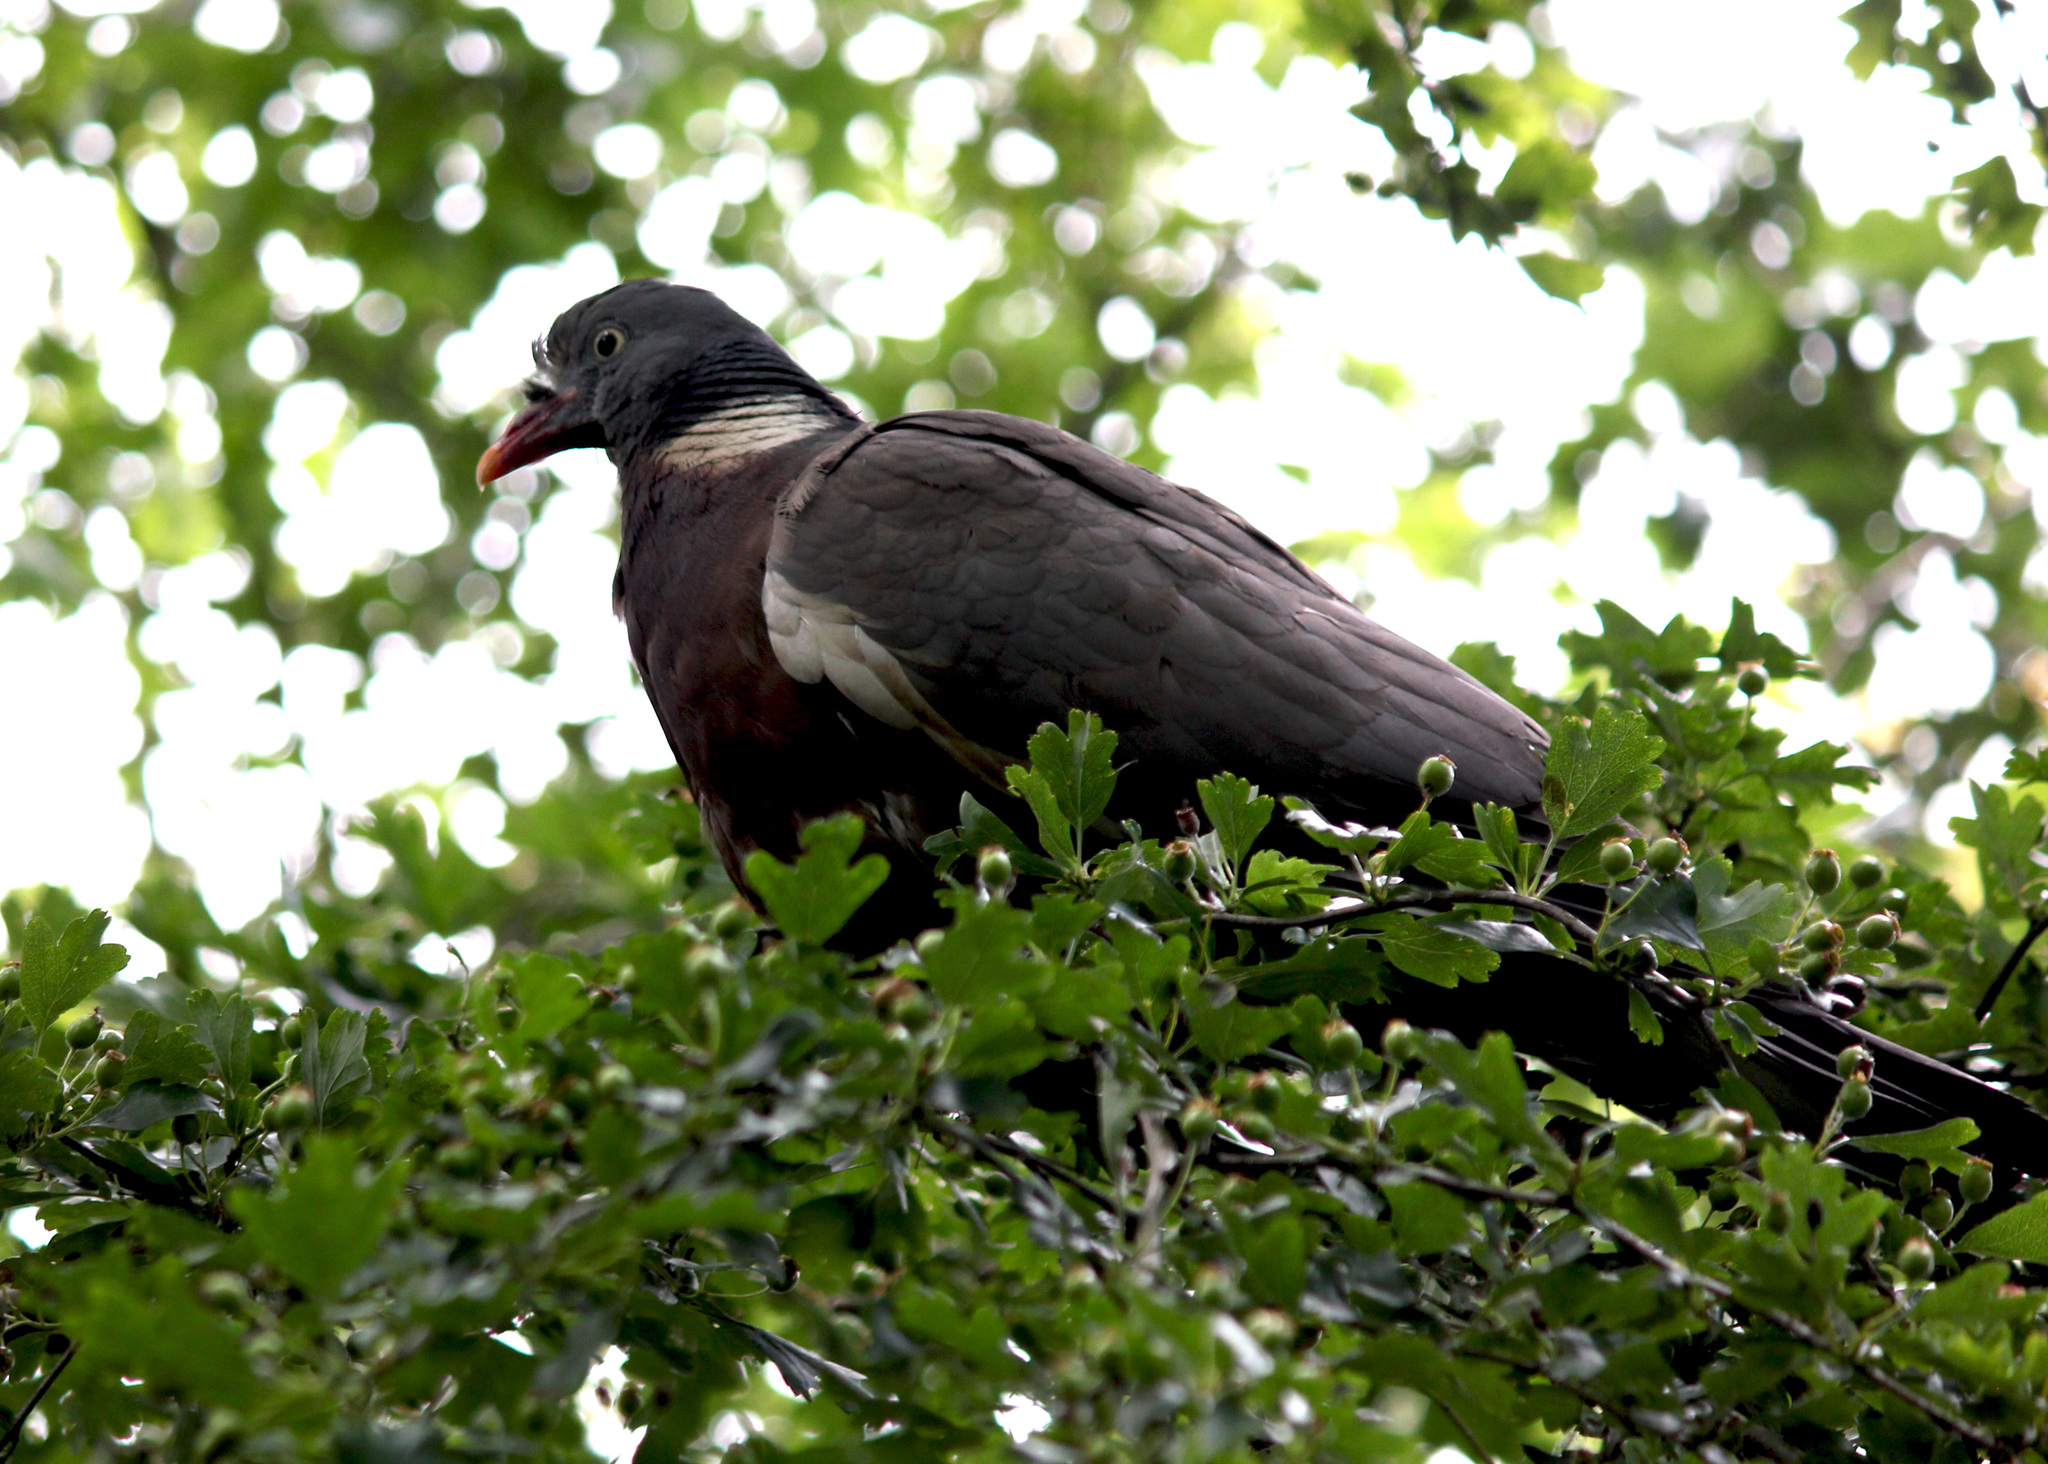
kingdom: Animalia
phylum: Chordata
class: Aves
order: Columbiformes
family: Columbidae
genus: Columba
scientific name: Columba palumbus
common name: Common wood pigeon
